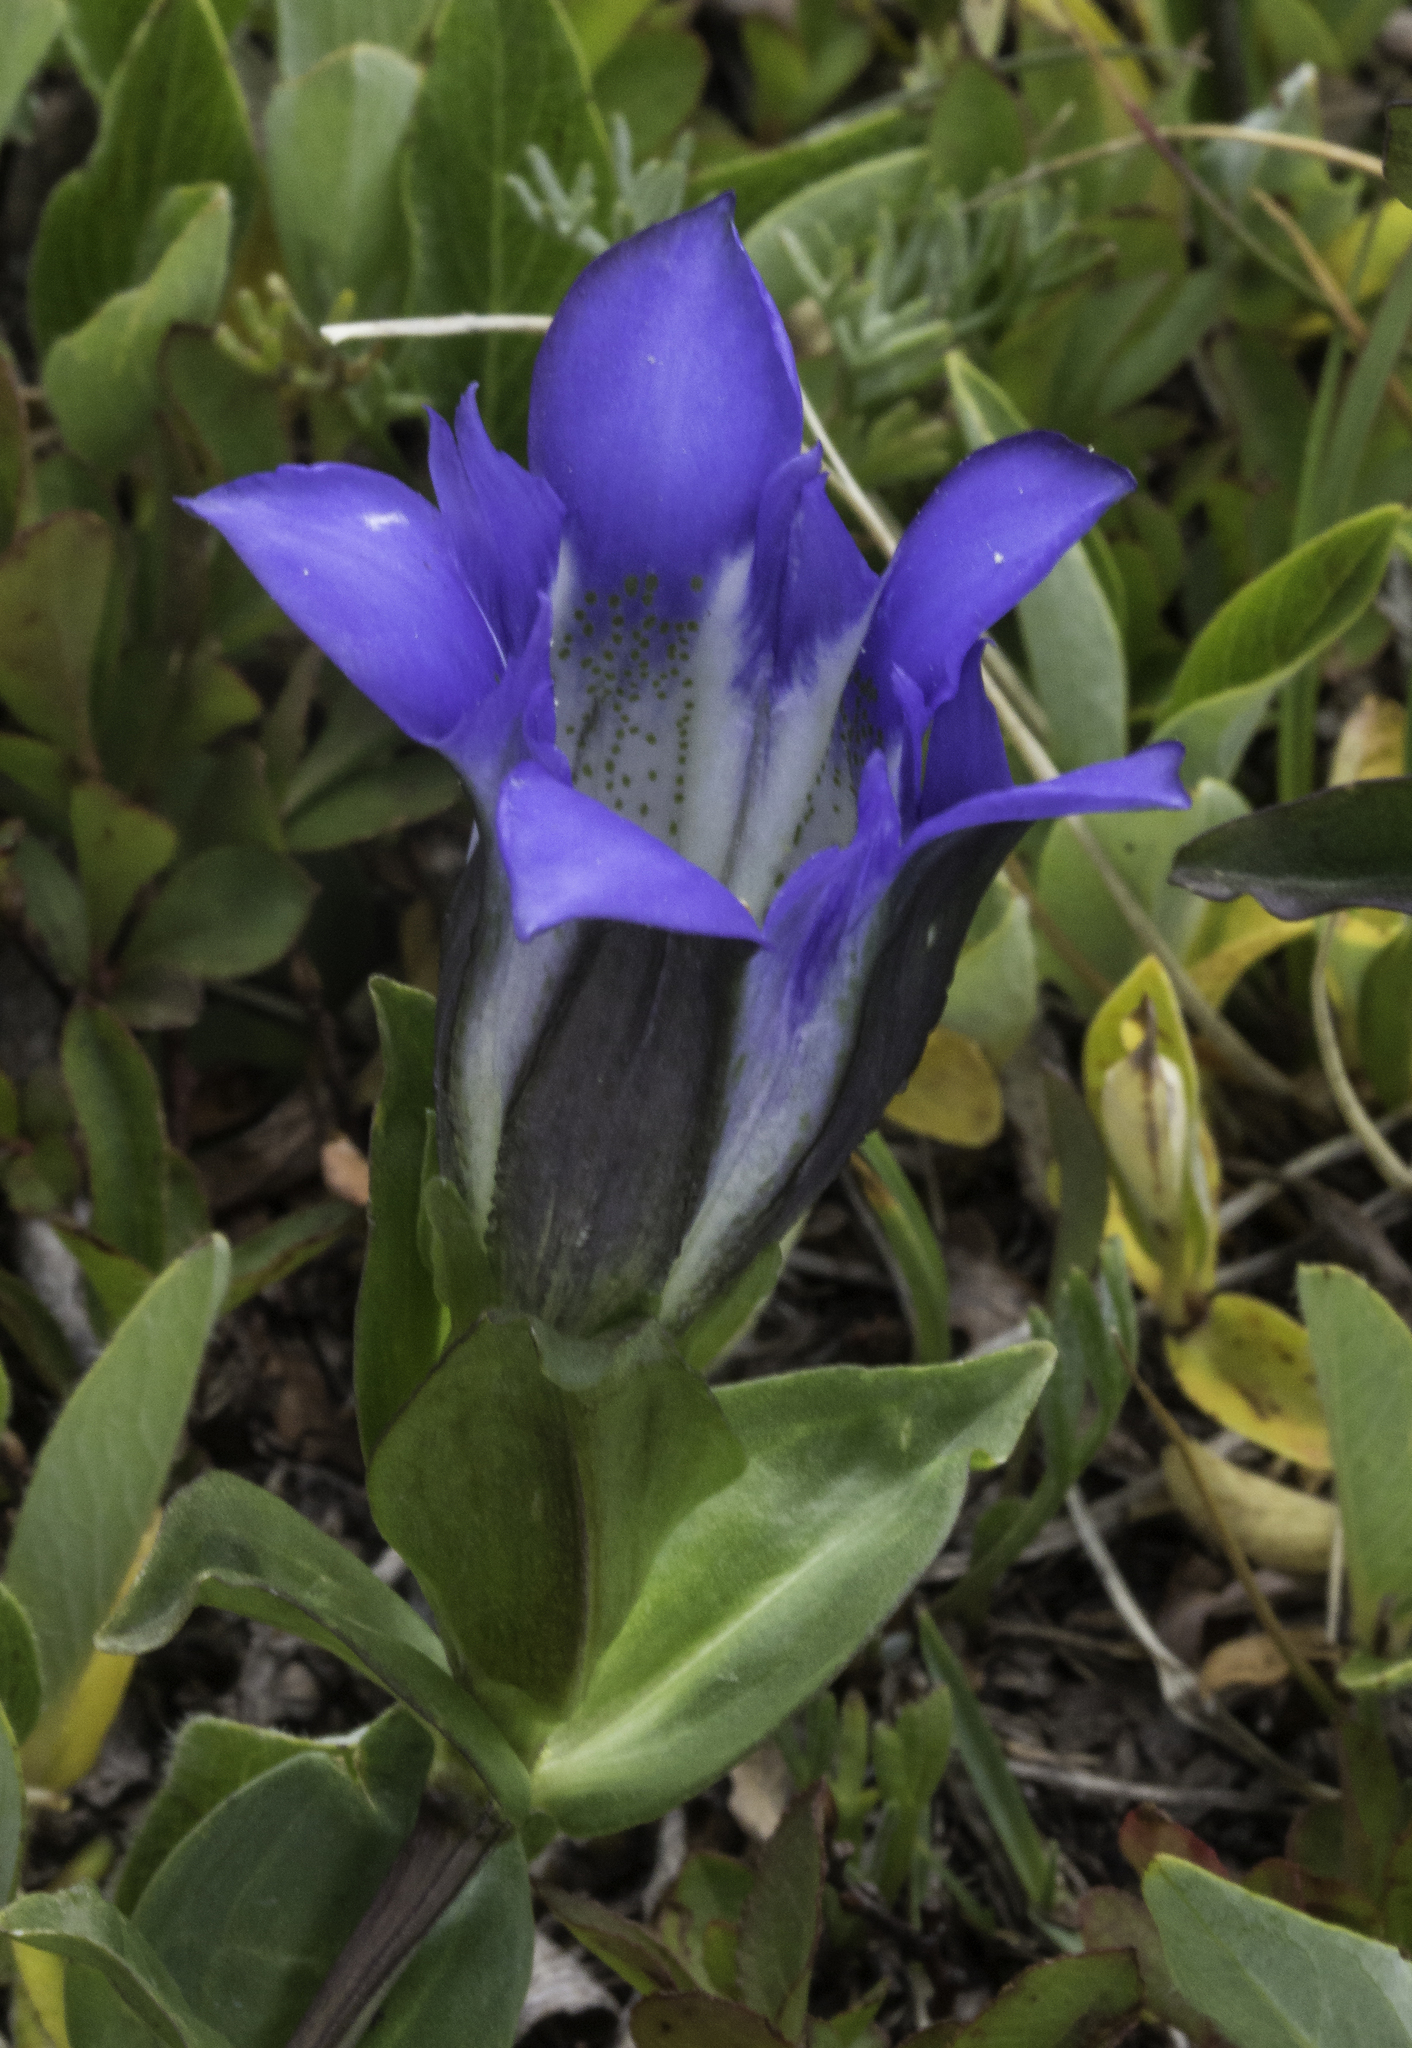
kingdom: Plantae
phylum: Tracheophyta
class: Magnoliopsida
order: Gentianales
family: Gentianaceae
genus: Gentiana
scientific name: Gentiana parryi
